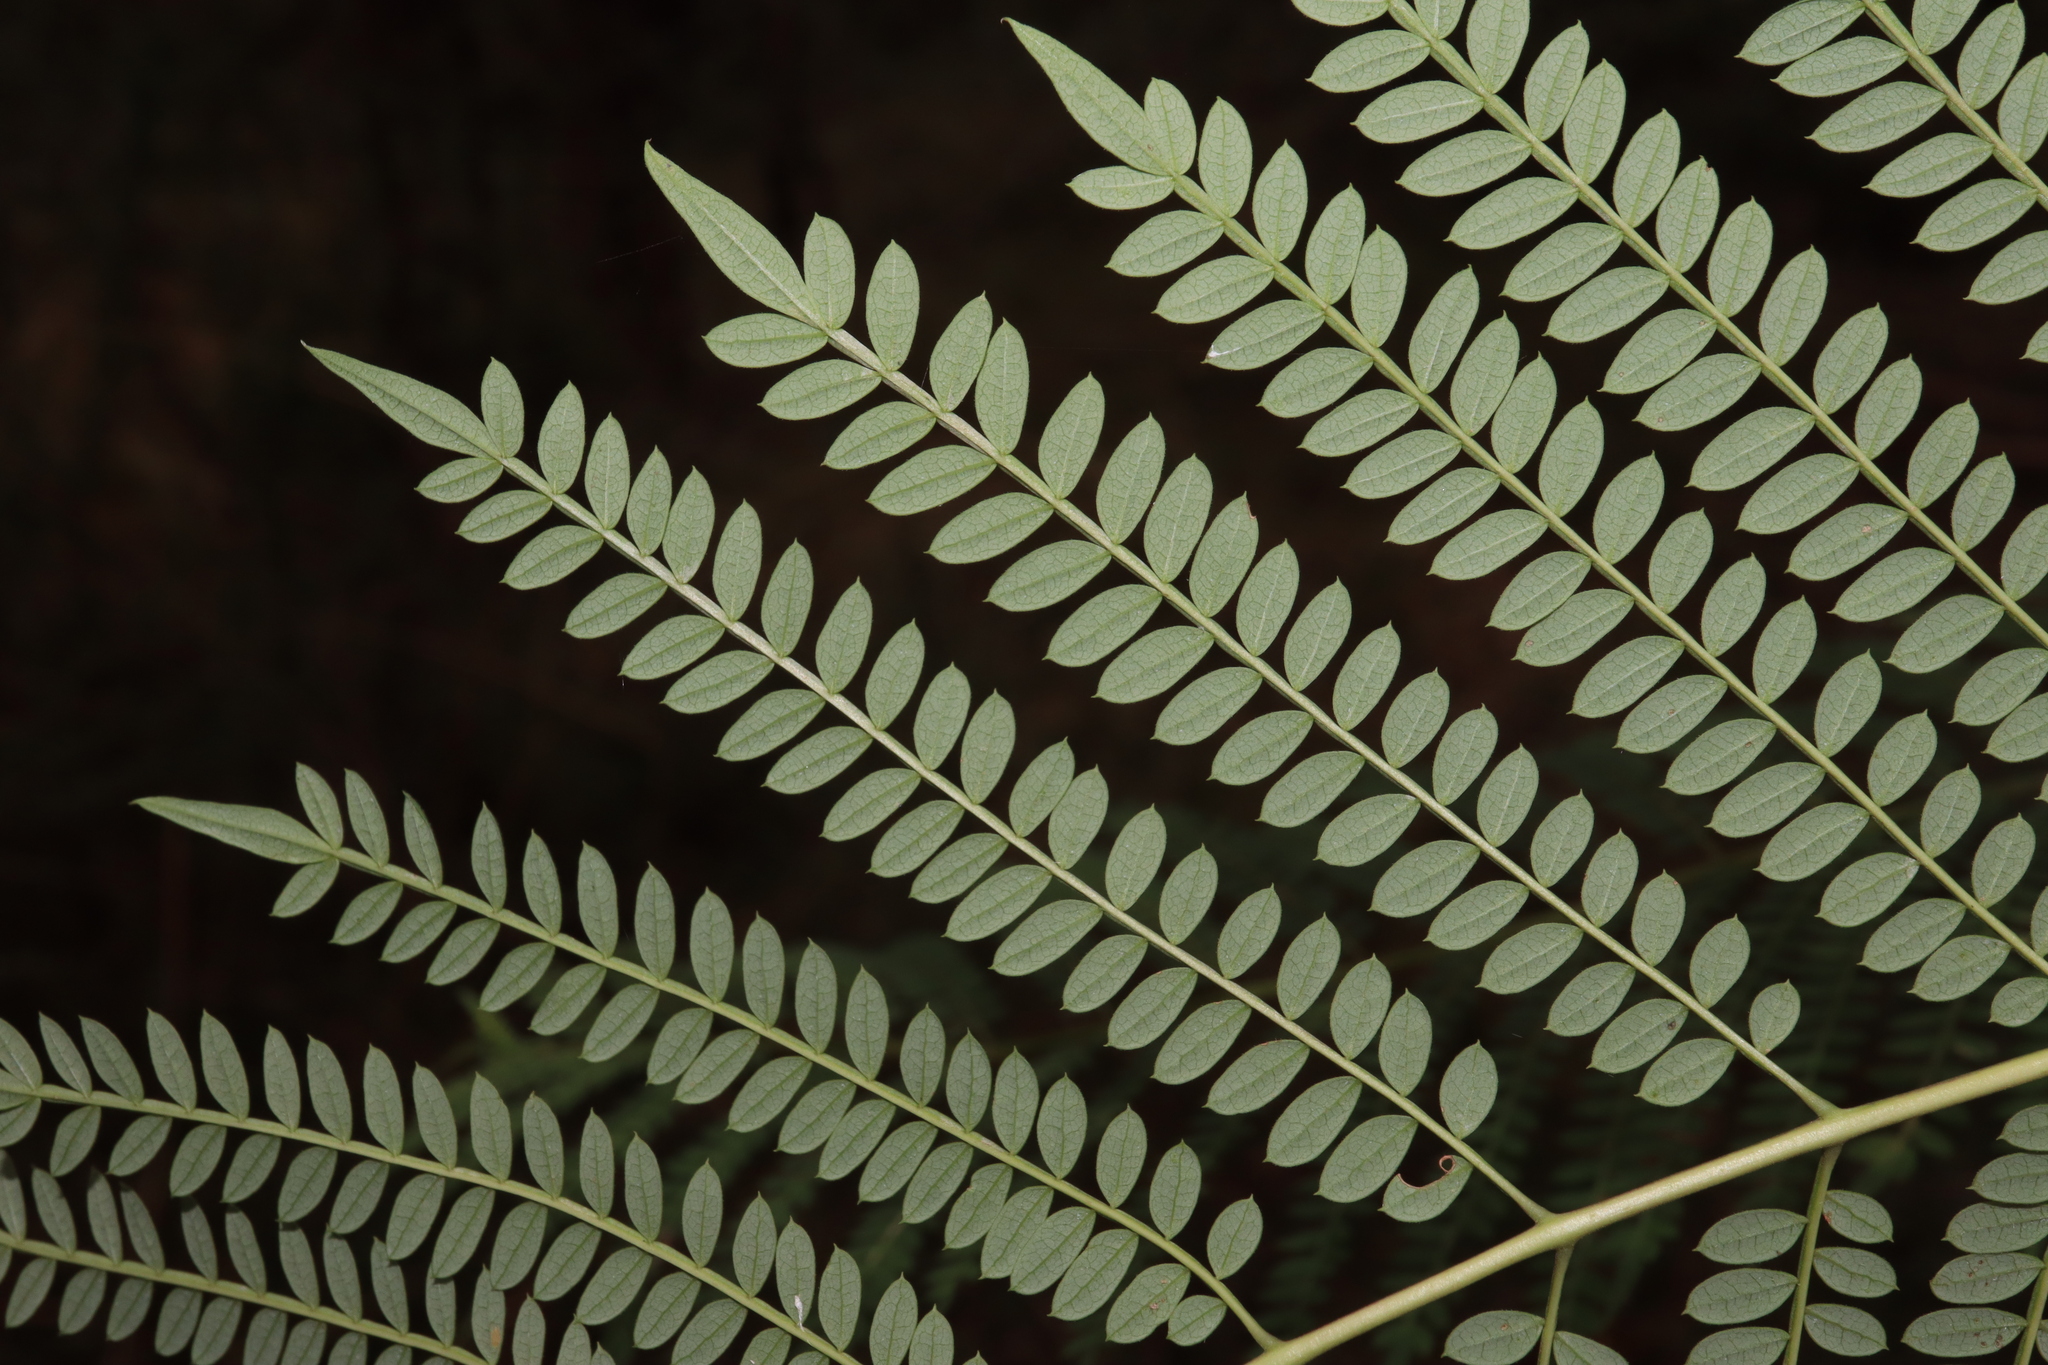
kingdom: Plantae
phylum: Tracheophyta
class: Magnoliopsida
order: Lamiales
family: Bignoniaceae
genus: Jacaranda
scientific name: Jacaranda mimosifolia
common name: Black poui
